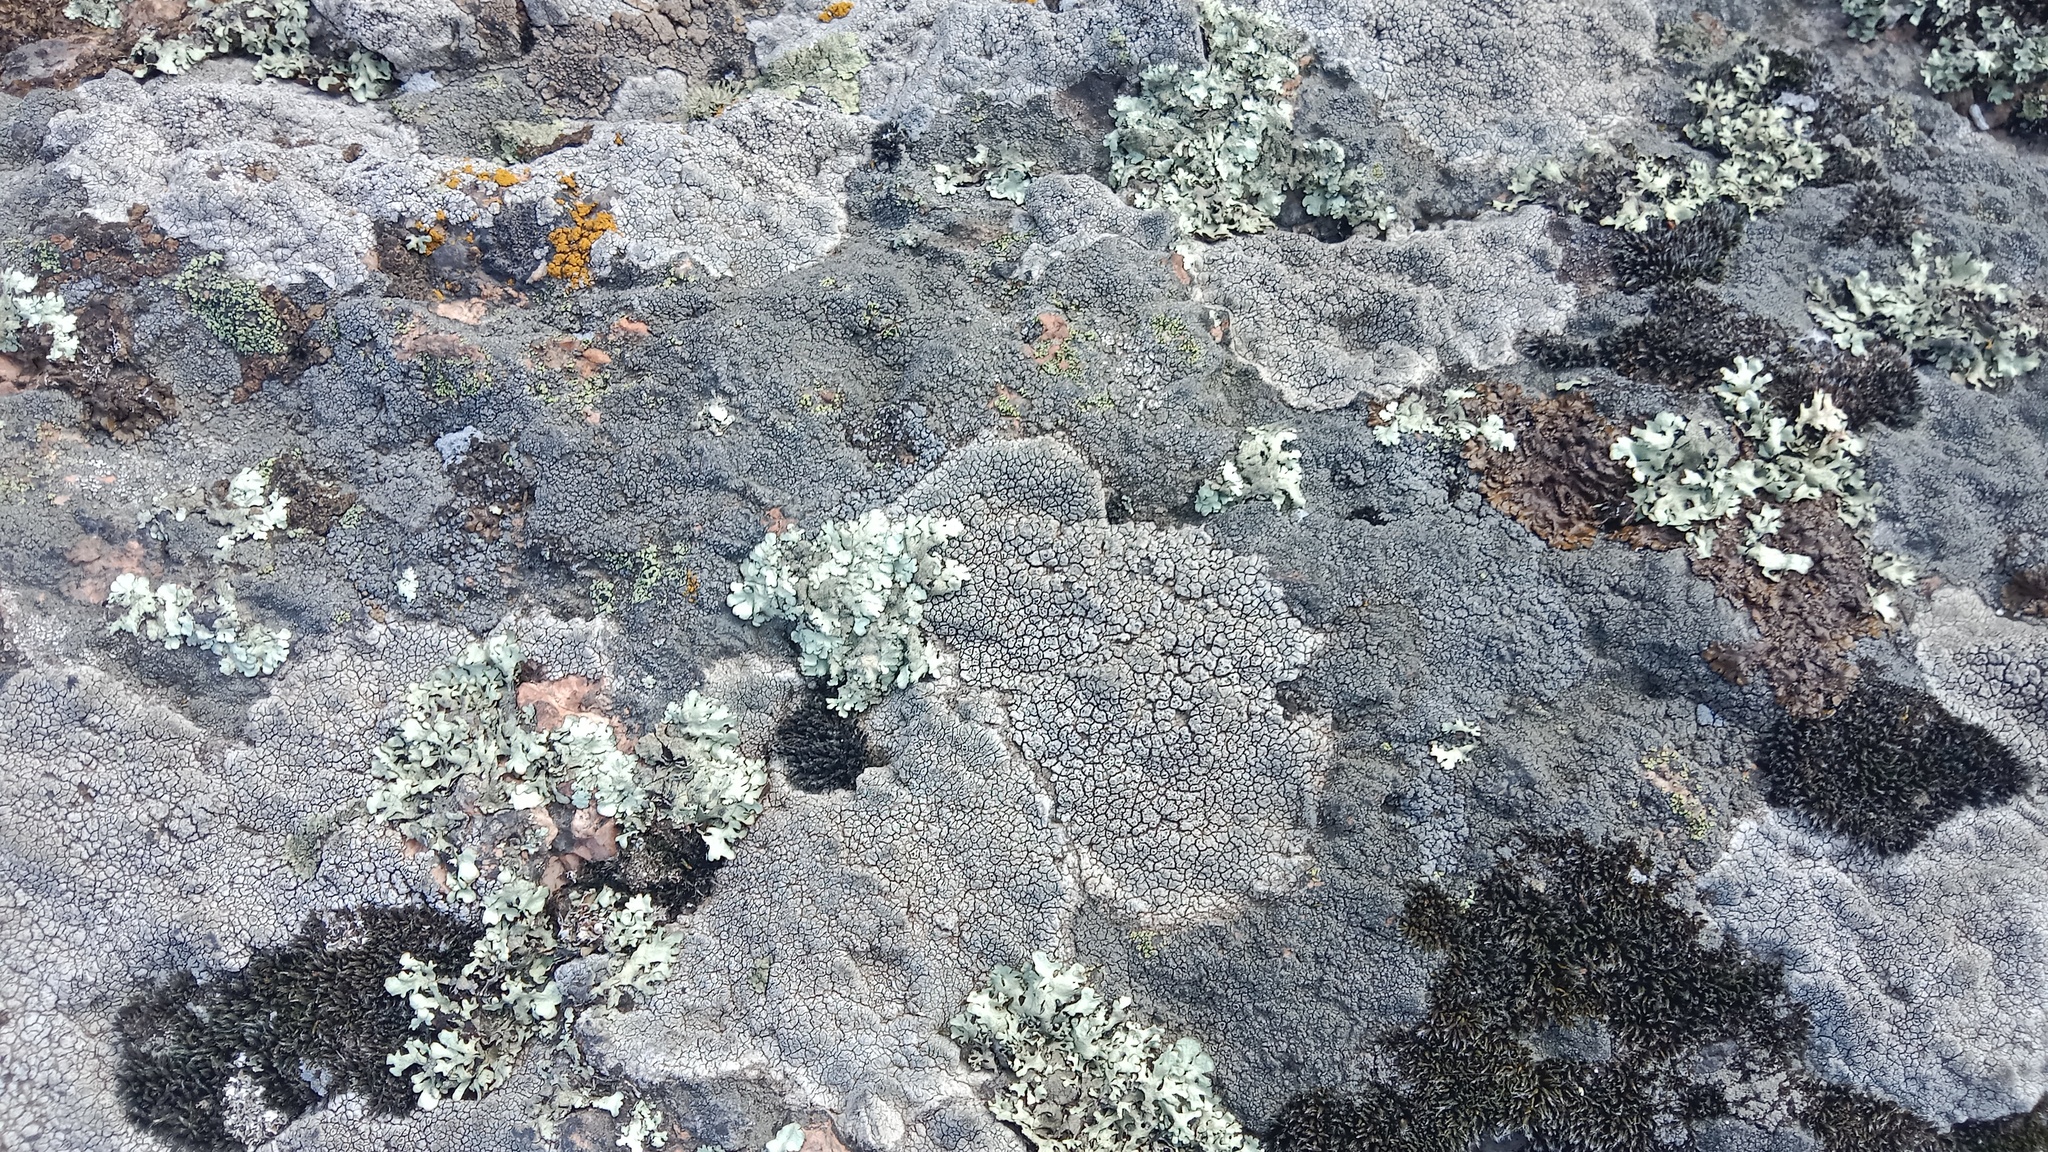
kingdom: Fungi
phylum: Ascomycota
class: Lecanoromycetes
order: Pertusariales
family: Megasporaceae
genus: Aspiciliella
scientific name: Aspiciliella intermutans
